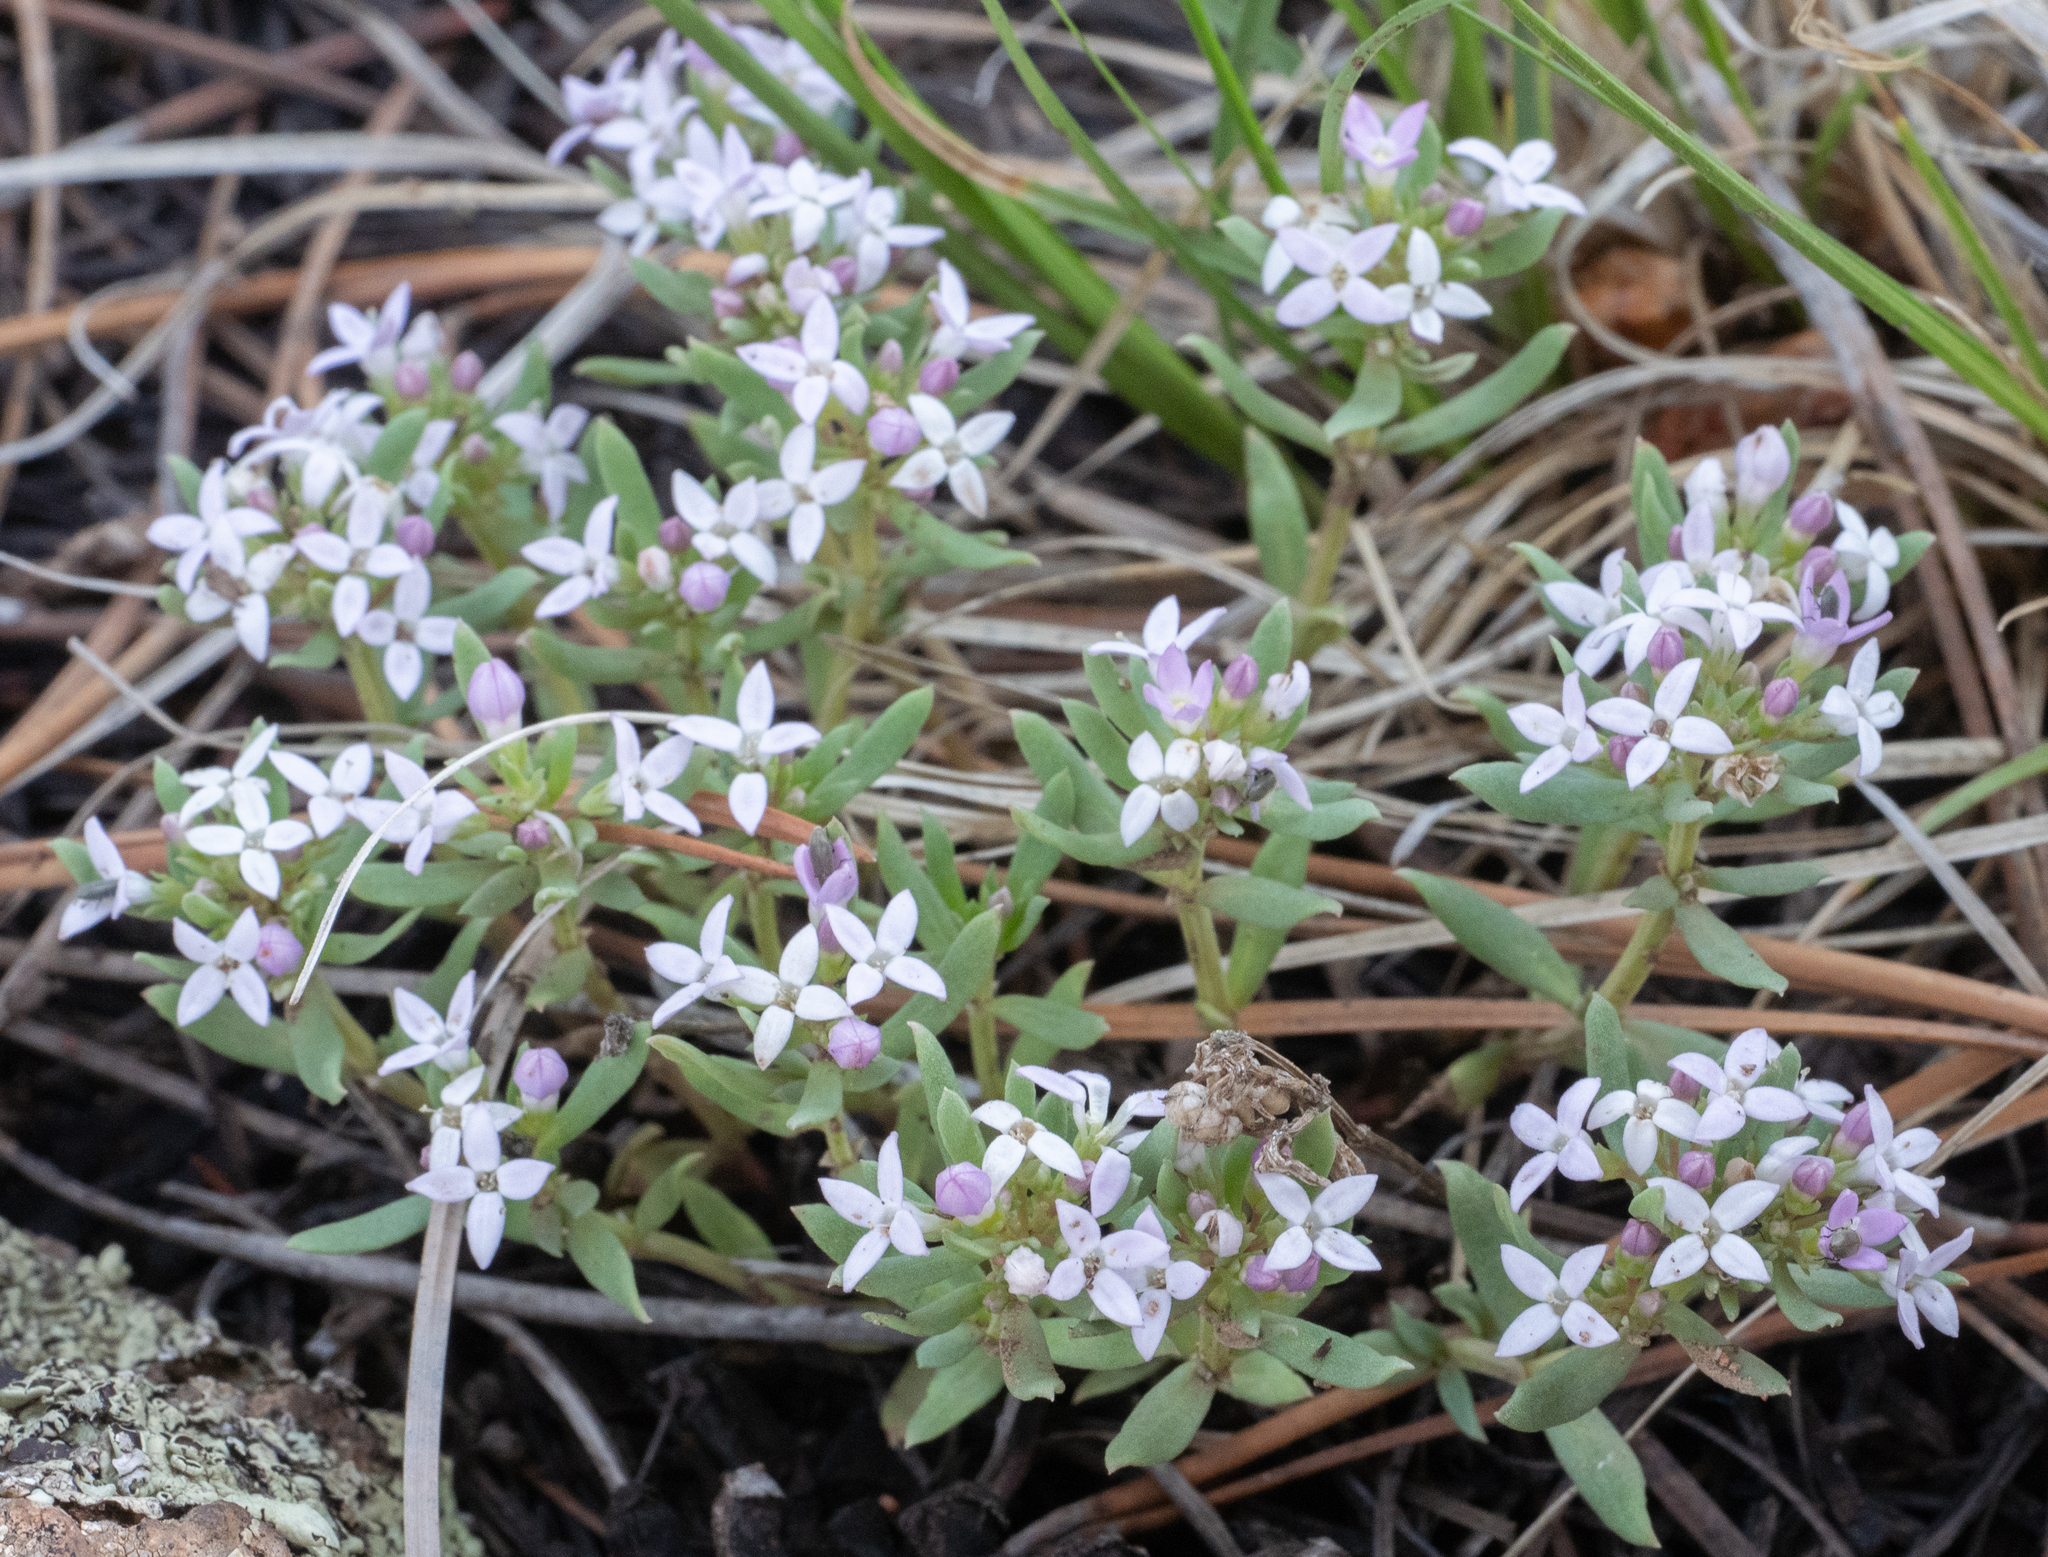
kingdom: Plantae
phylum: Tracheophyta
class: Magnoliopsida
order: Gentianales
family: Rubiaceae
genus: Houstonia
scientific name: Houstonia wrightii
